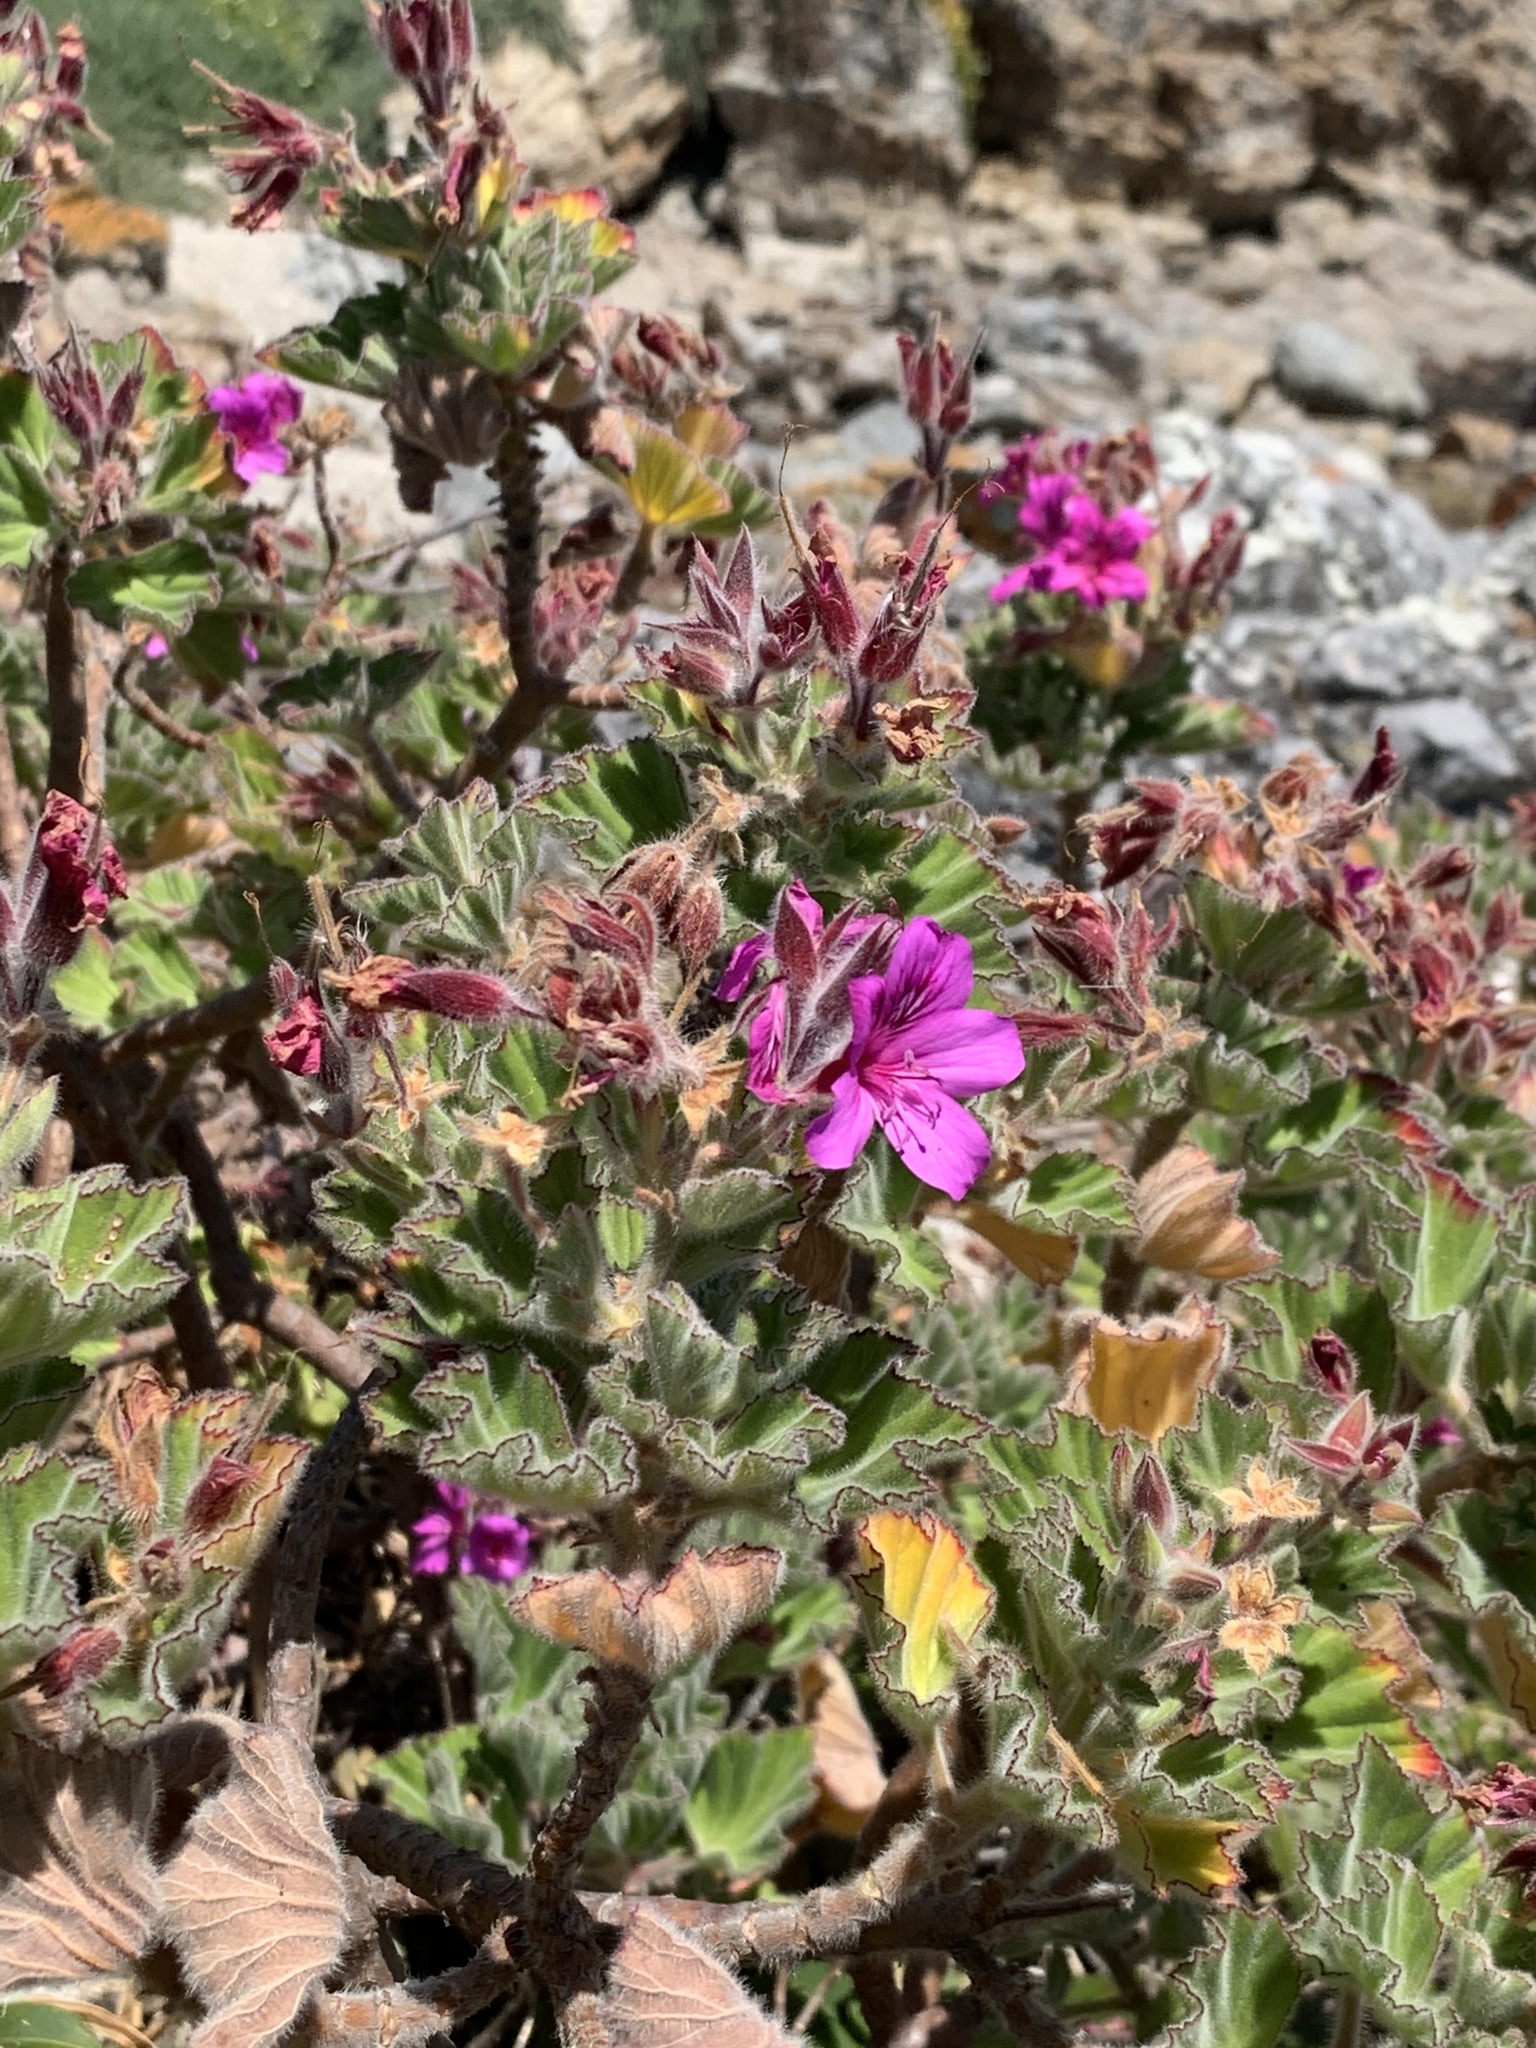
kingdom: Plantae
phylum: Tracheophyta
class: Magnoliopsida
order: Geraniales
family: Geraniaceae
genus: Pelargonium
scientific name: Pelargonium cucullatum
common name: Tree pelargonium
